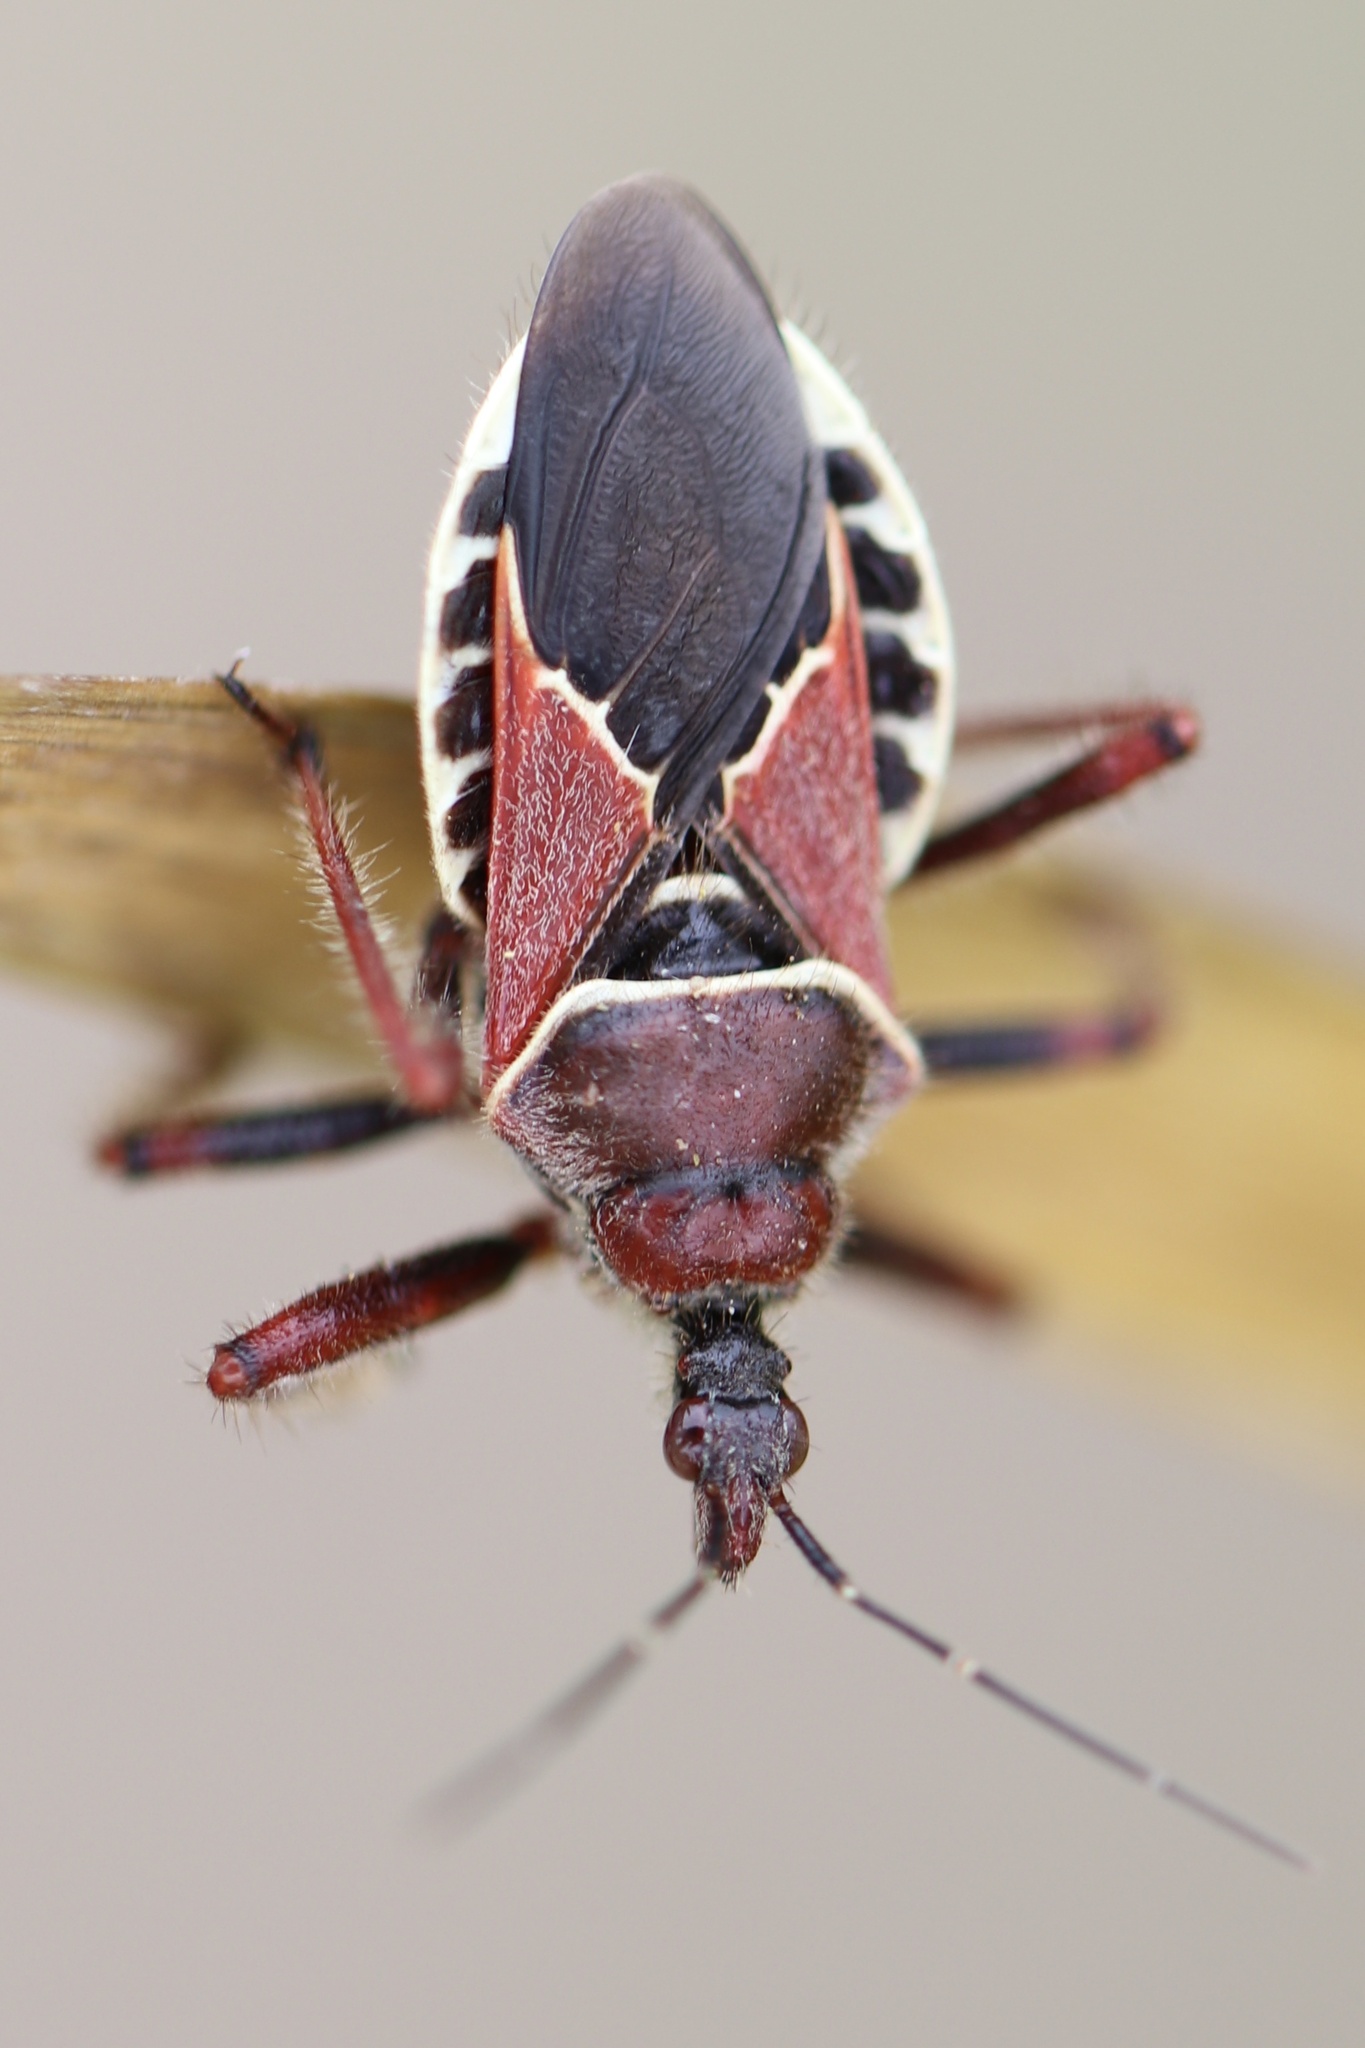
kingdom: Animalia
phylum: Arthropoda
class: Insecta
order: Hemiptera
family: Reduviidae
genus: Apiomerus
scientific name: Apiomerus spissipes
